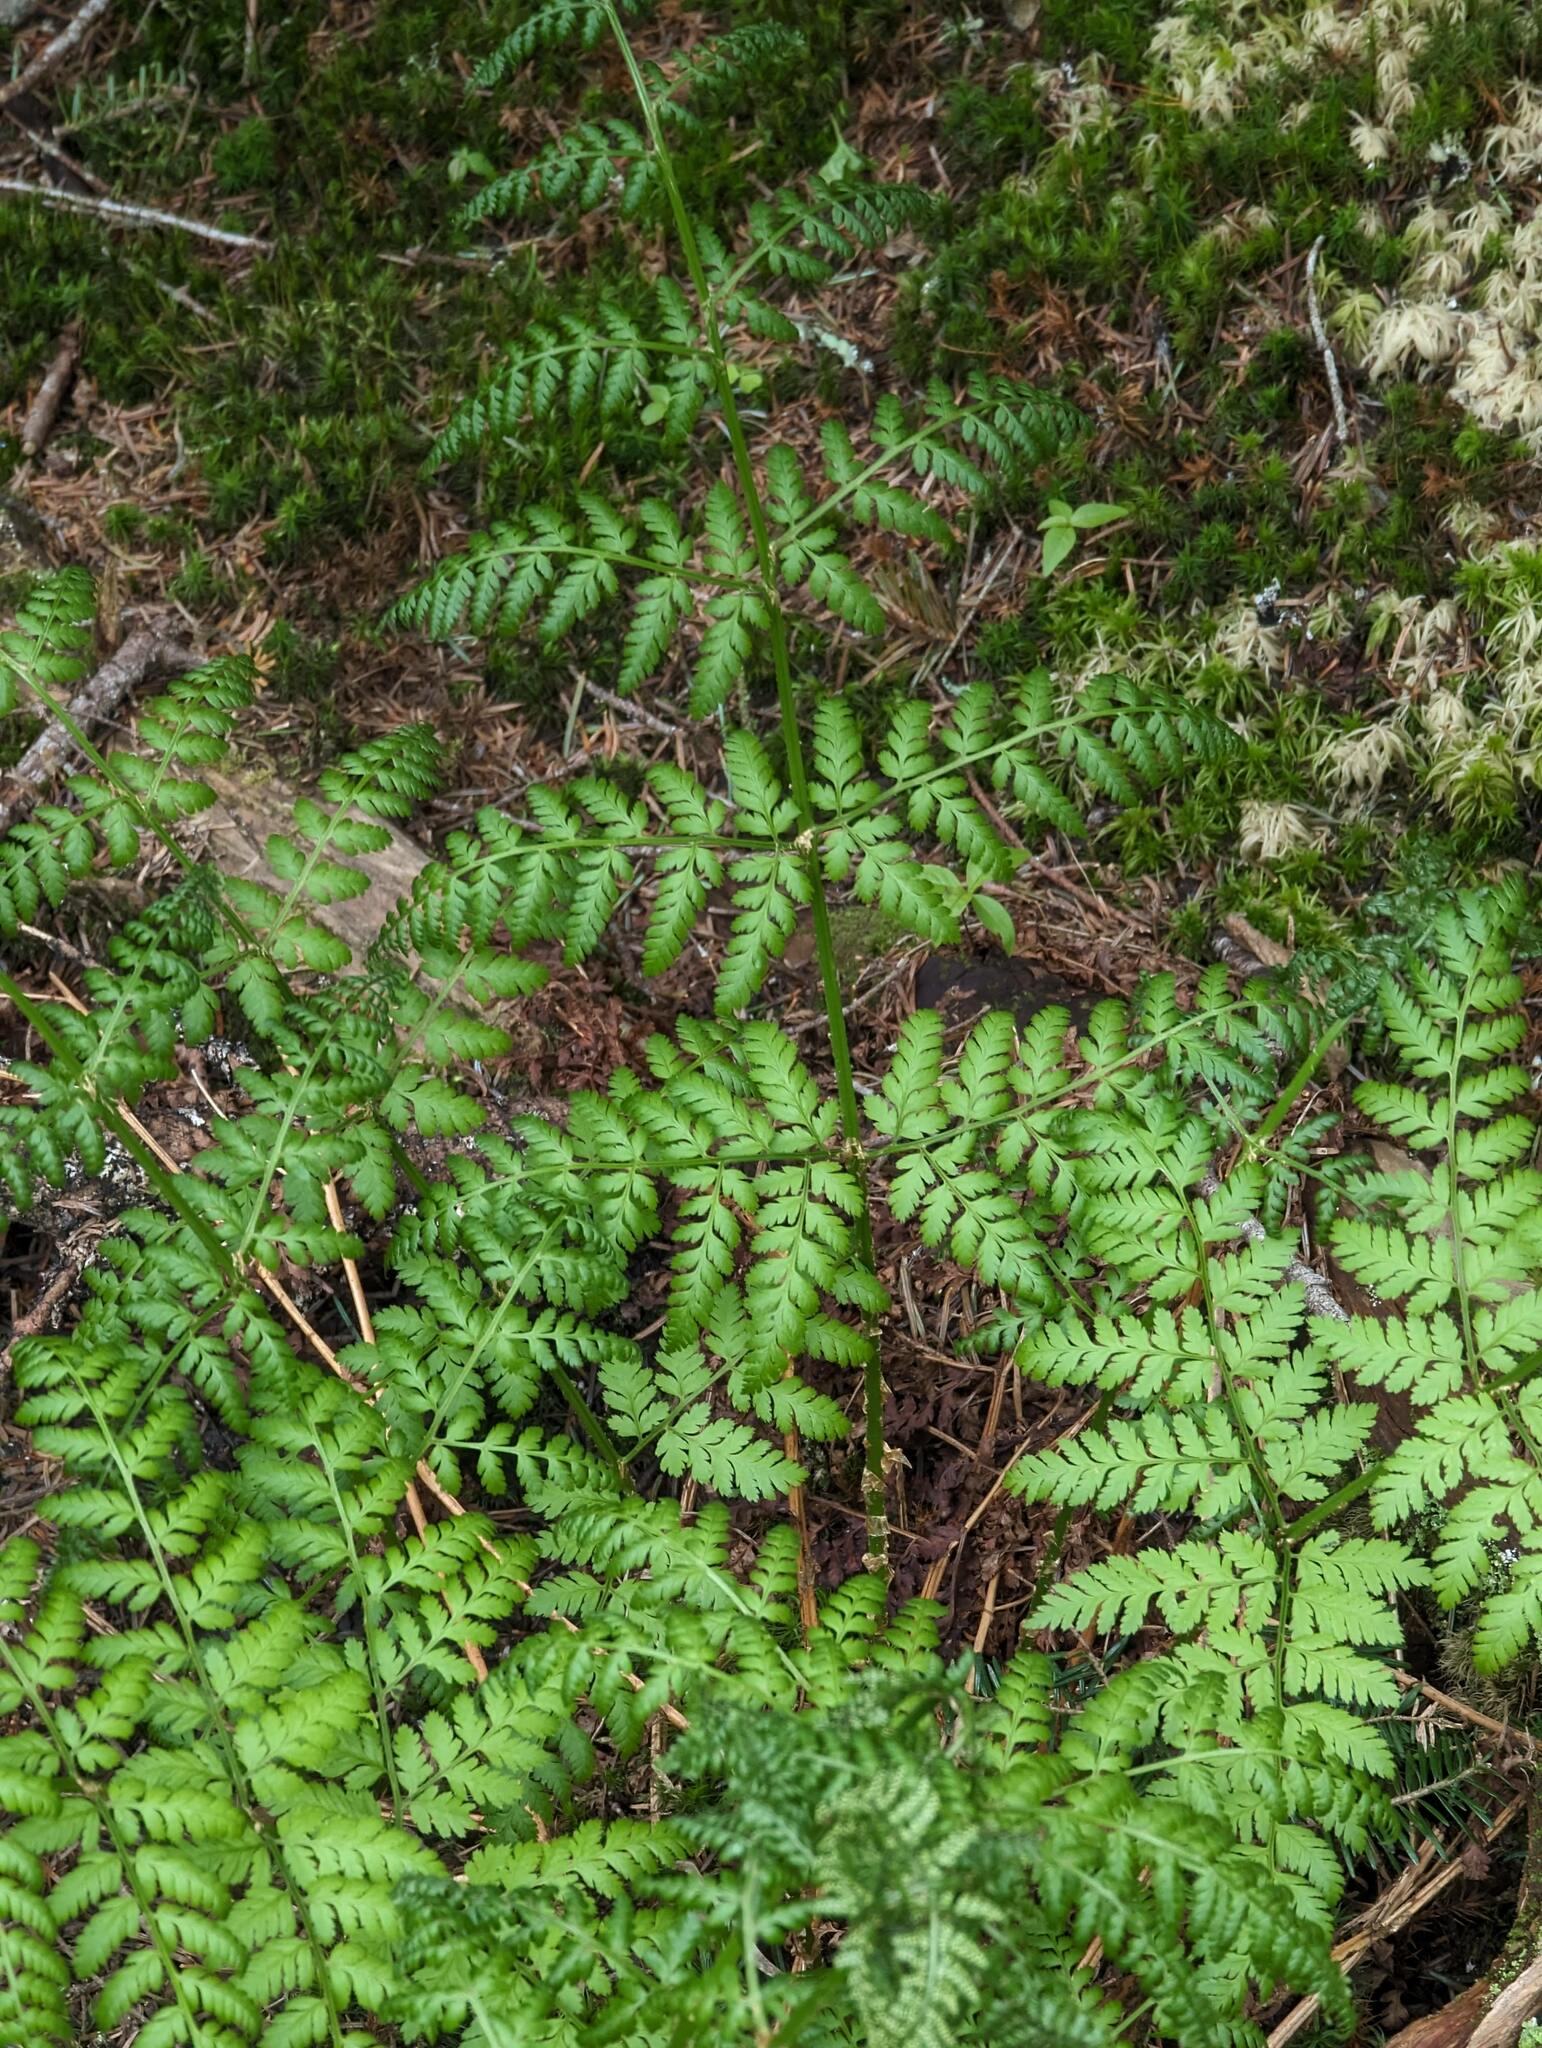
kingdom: Plantae
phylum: Tracheophyta
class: Polypodiopsida
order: Polypodiales
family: Dryopteridaceae
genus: Dryopteris
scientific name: Dryopteris campyloptera
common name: Mountain wood fern
